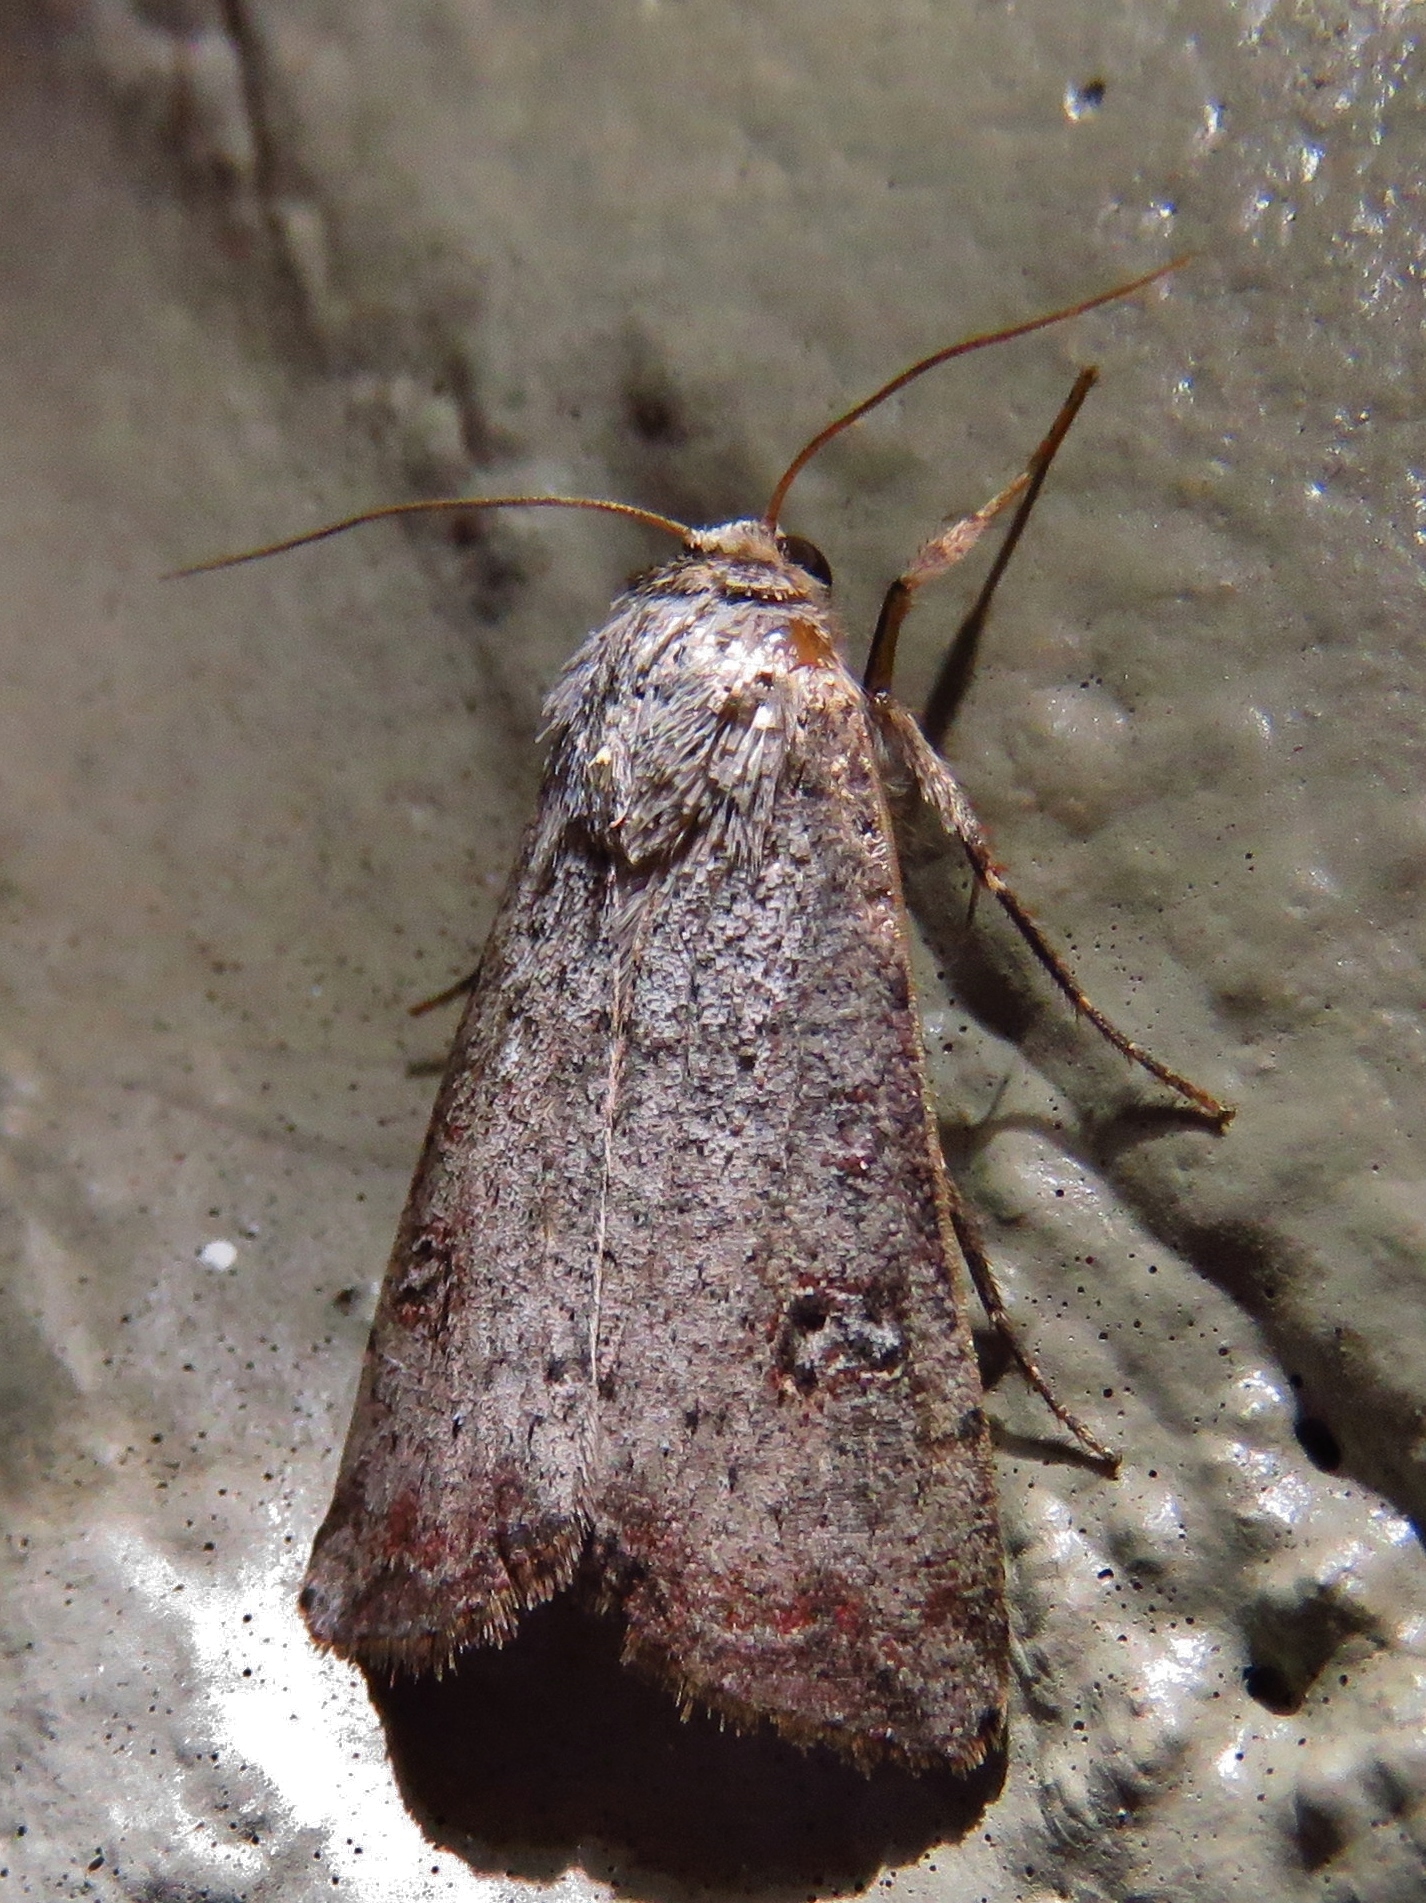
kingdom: Animalia
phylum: Arthropoda
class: Insecta
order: Lepidoptera
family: Noctuidae
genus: Anicla
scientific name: Anicla infecta
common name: Green cutworm
